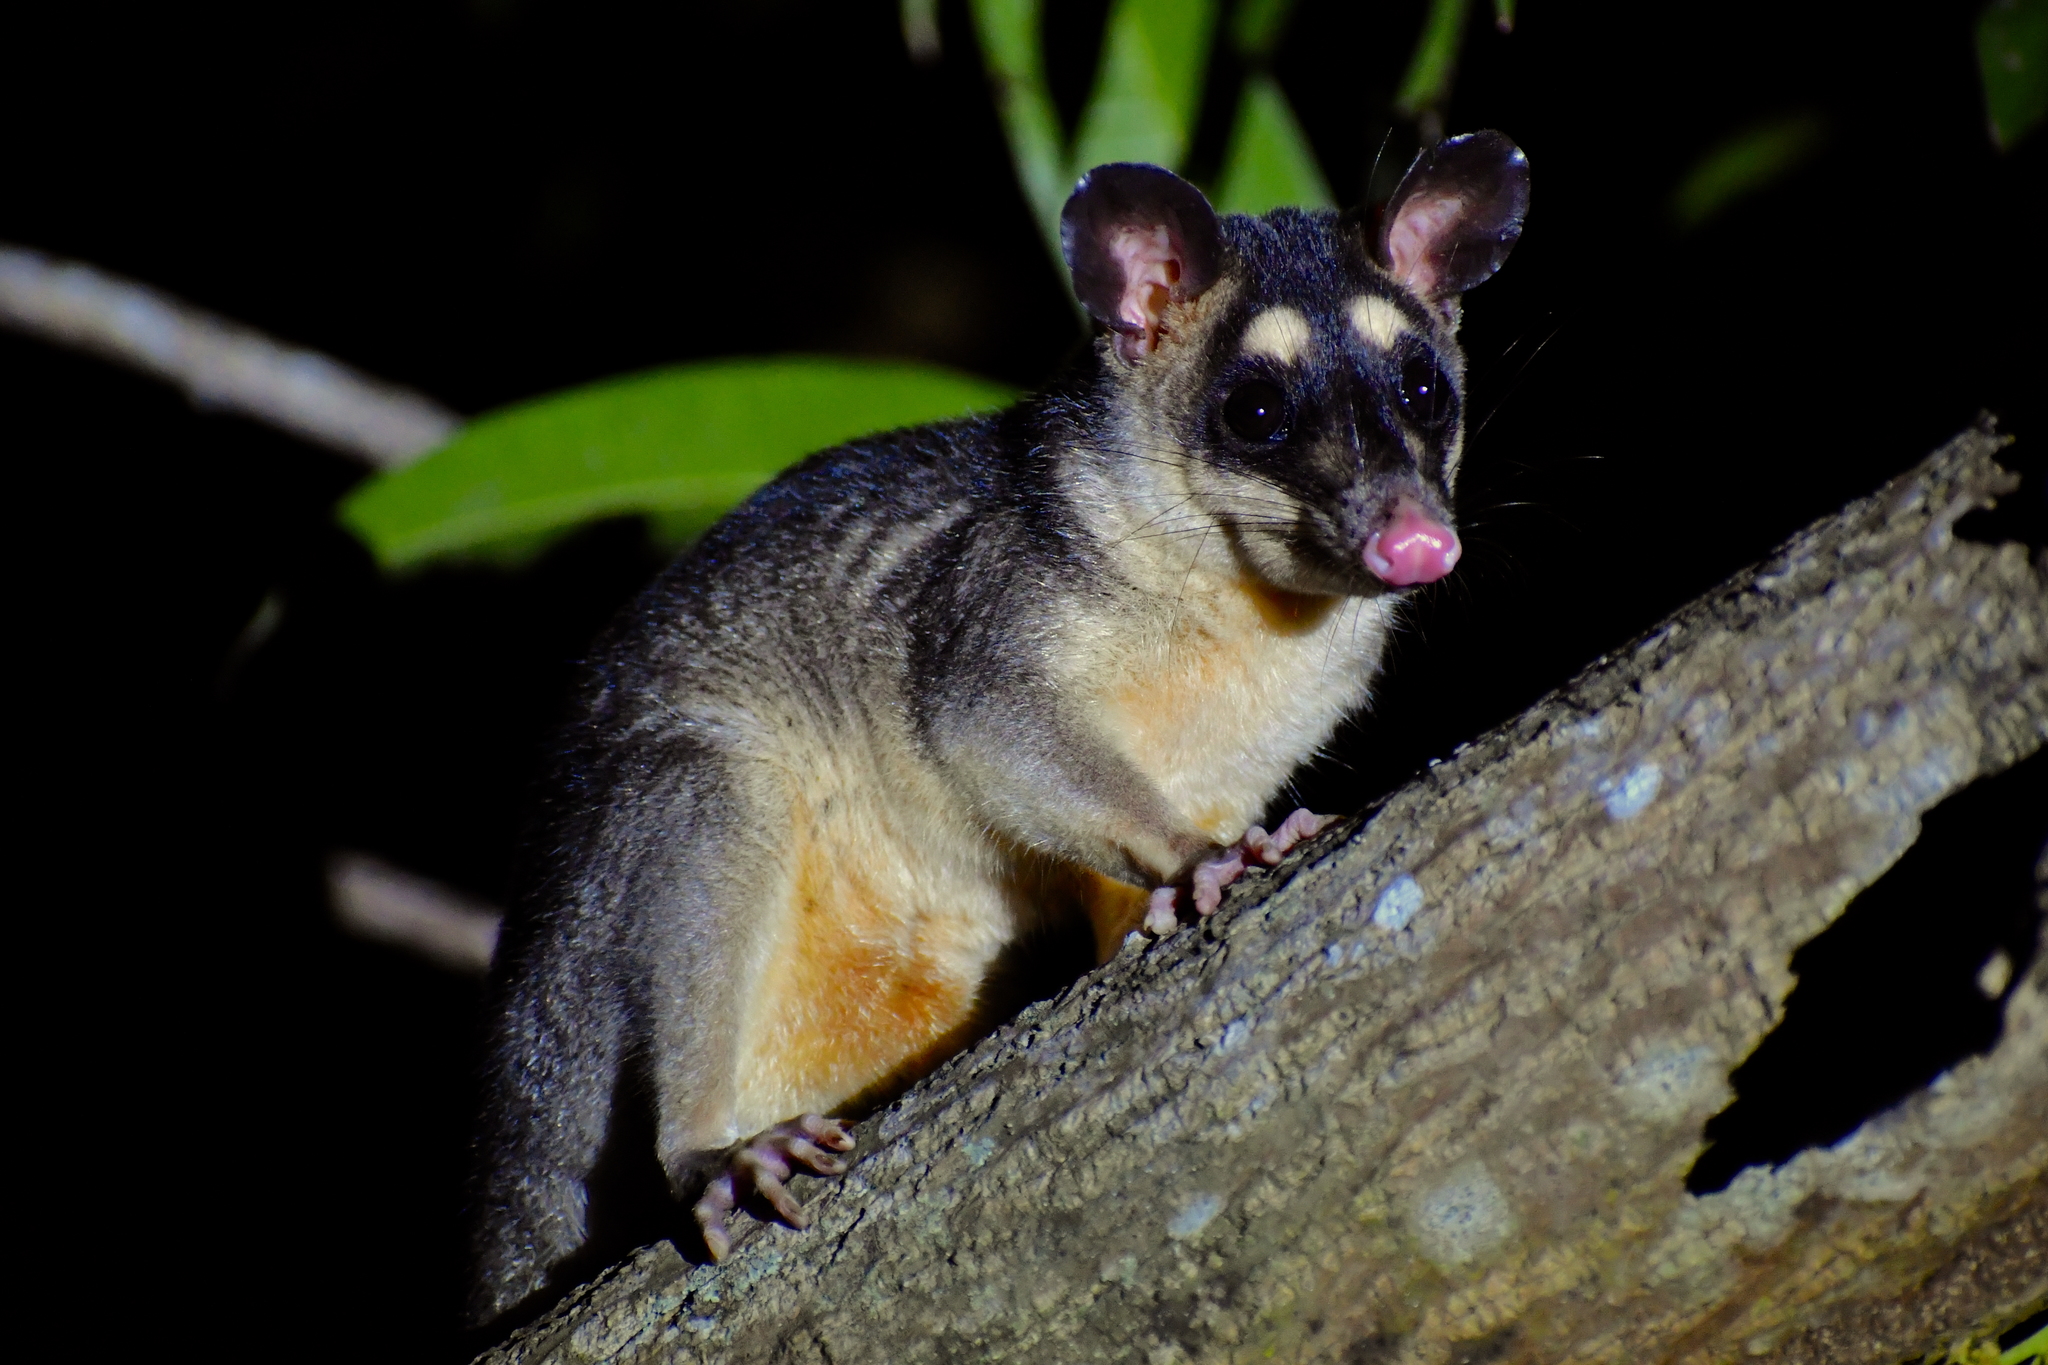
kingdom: Animalia
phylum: Chordata
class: Mammalia
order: Didelphimorphia
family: Didelphidae
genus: Philander
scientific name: Philander
